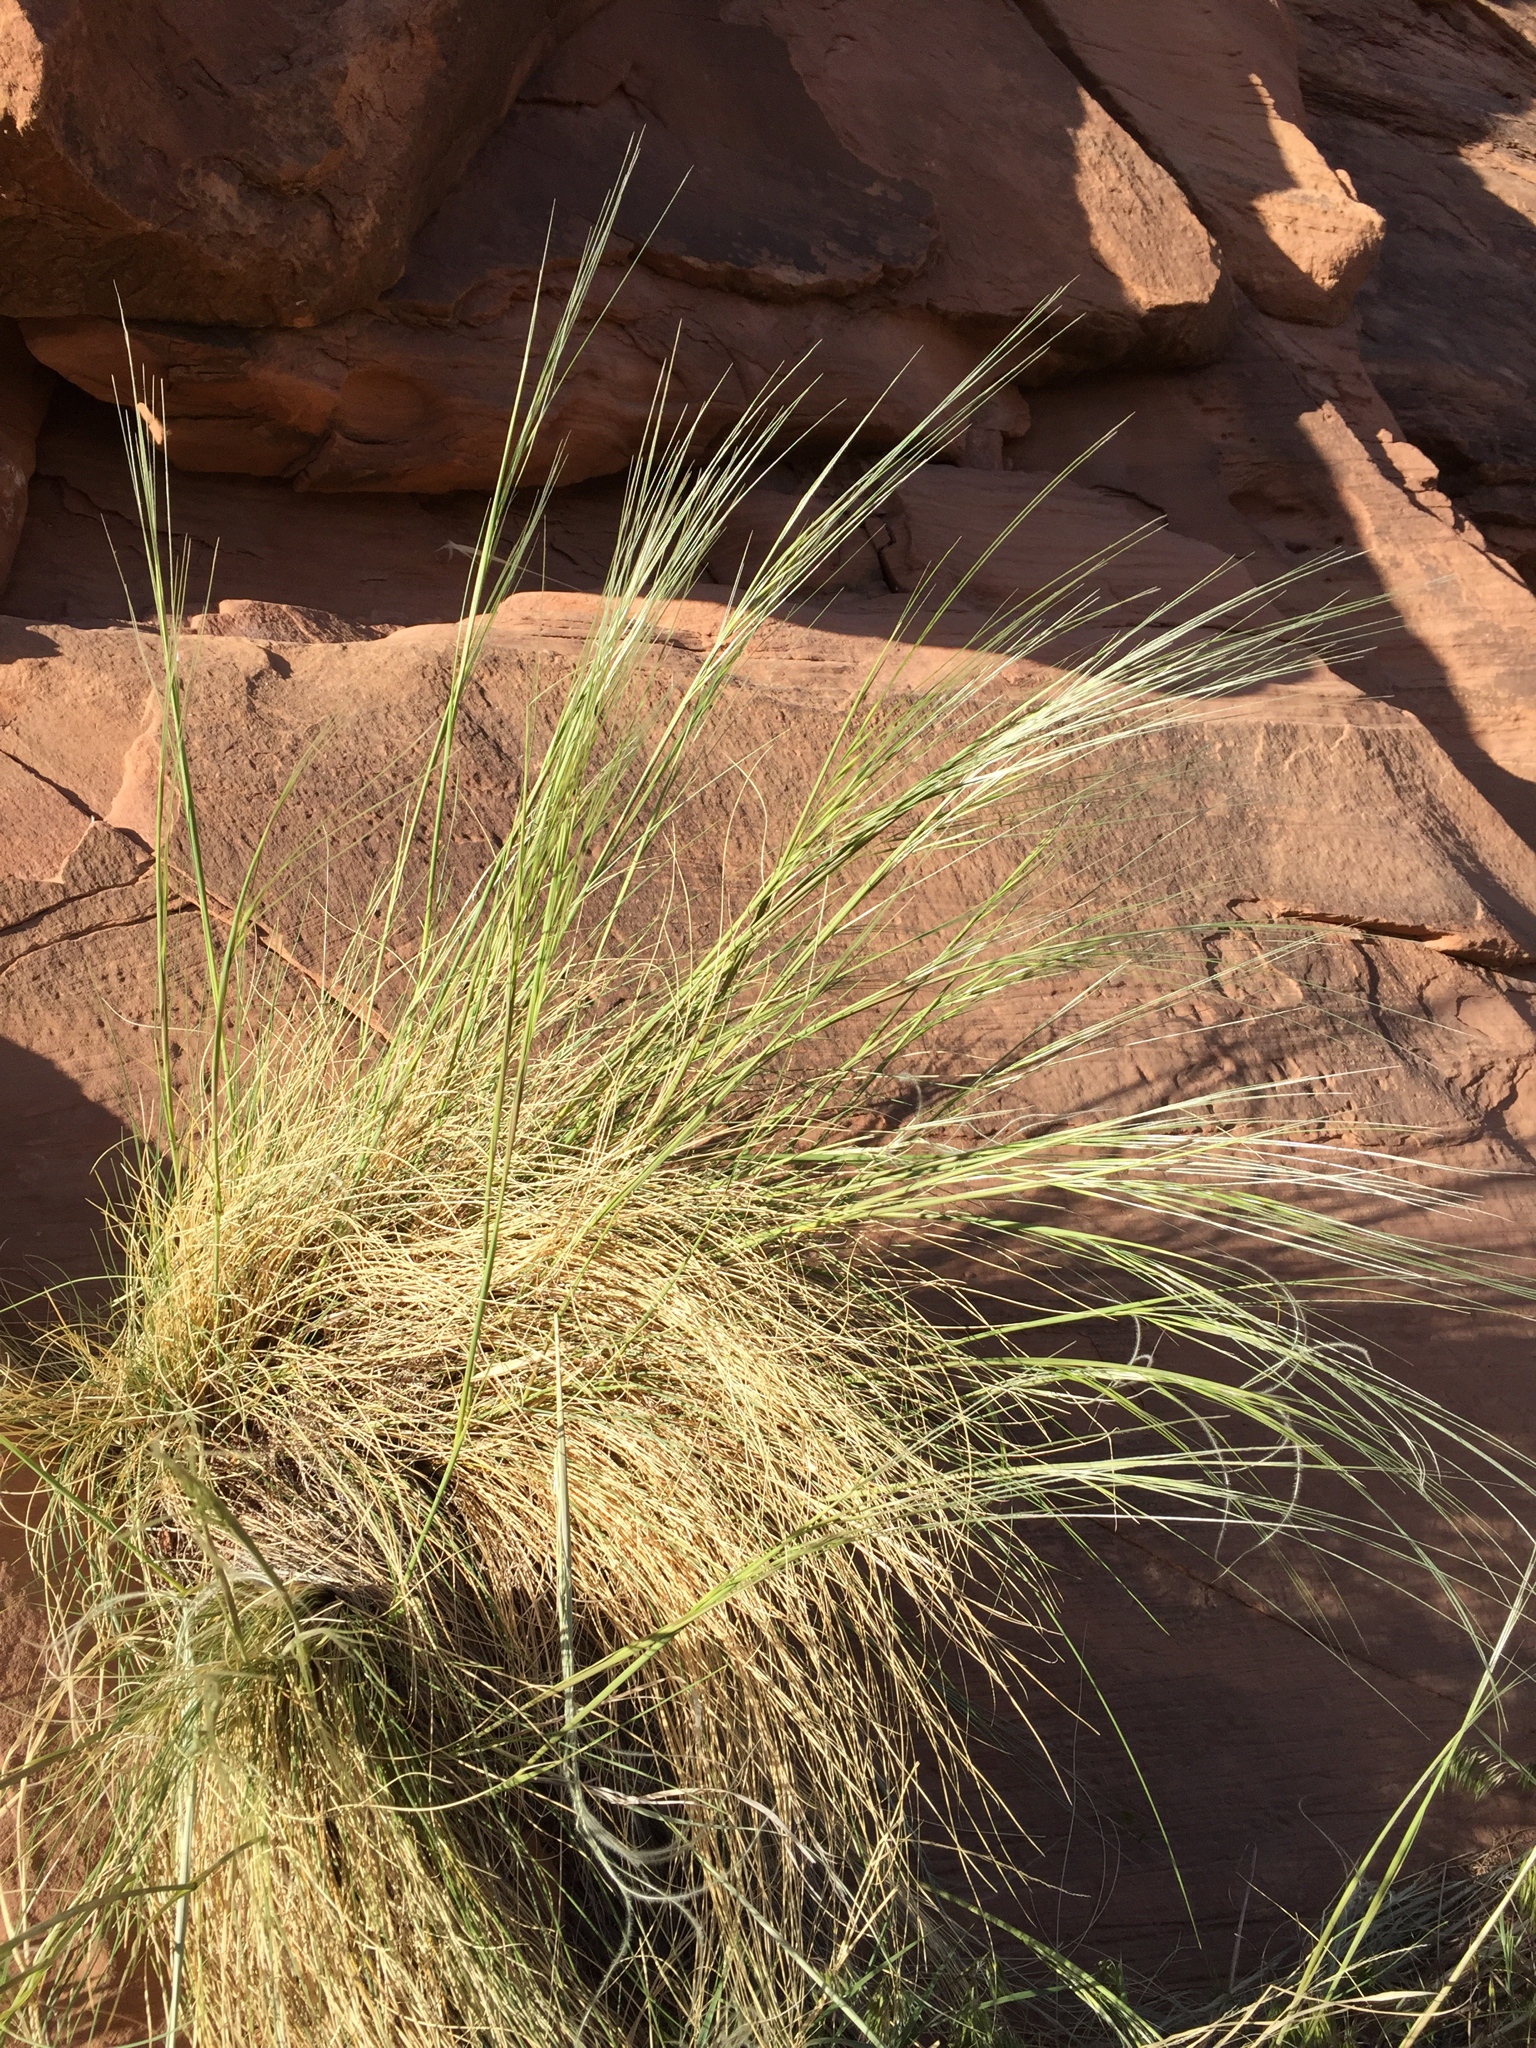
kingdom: Plantae
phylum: Tracheophyta
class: Liliopsida
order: Poales
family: Poaceae
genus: Hesperostipa
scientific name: Hesperostipa comata
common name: Needle-and-thread grass
